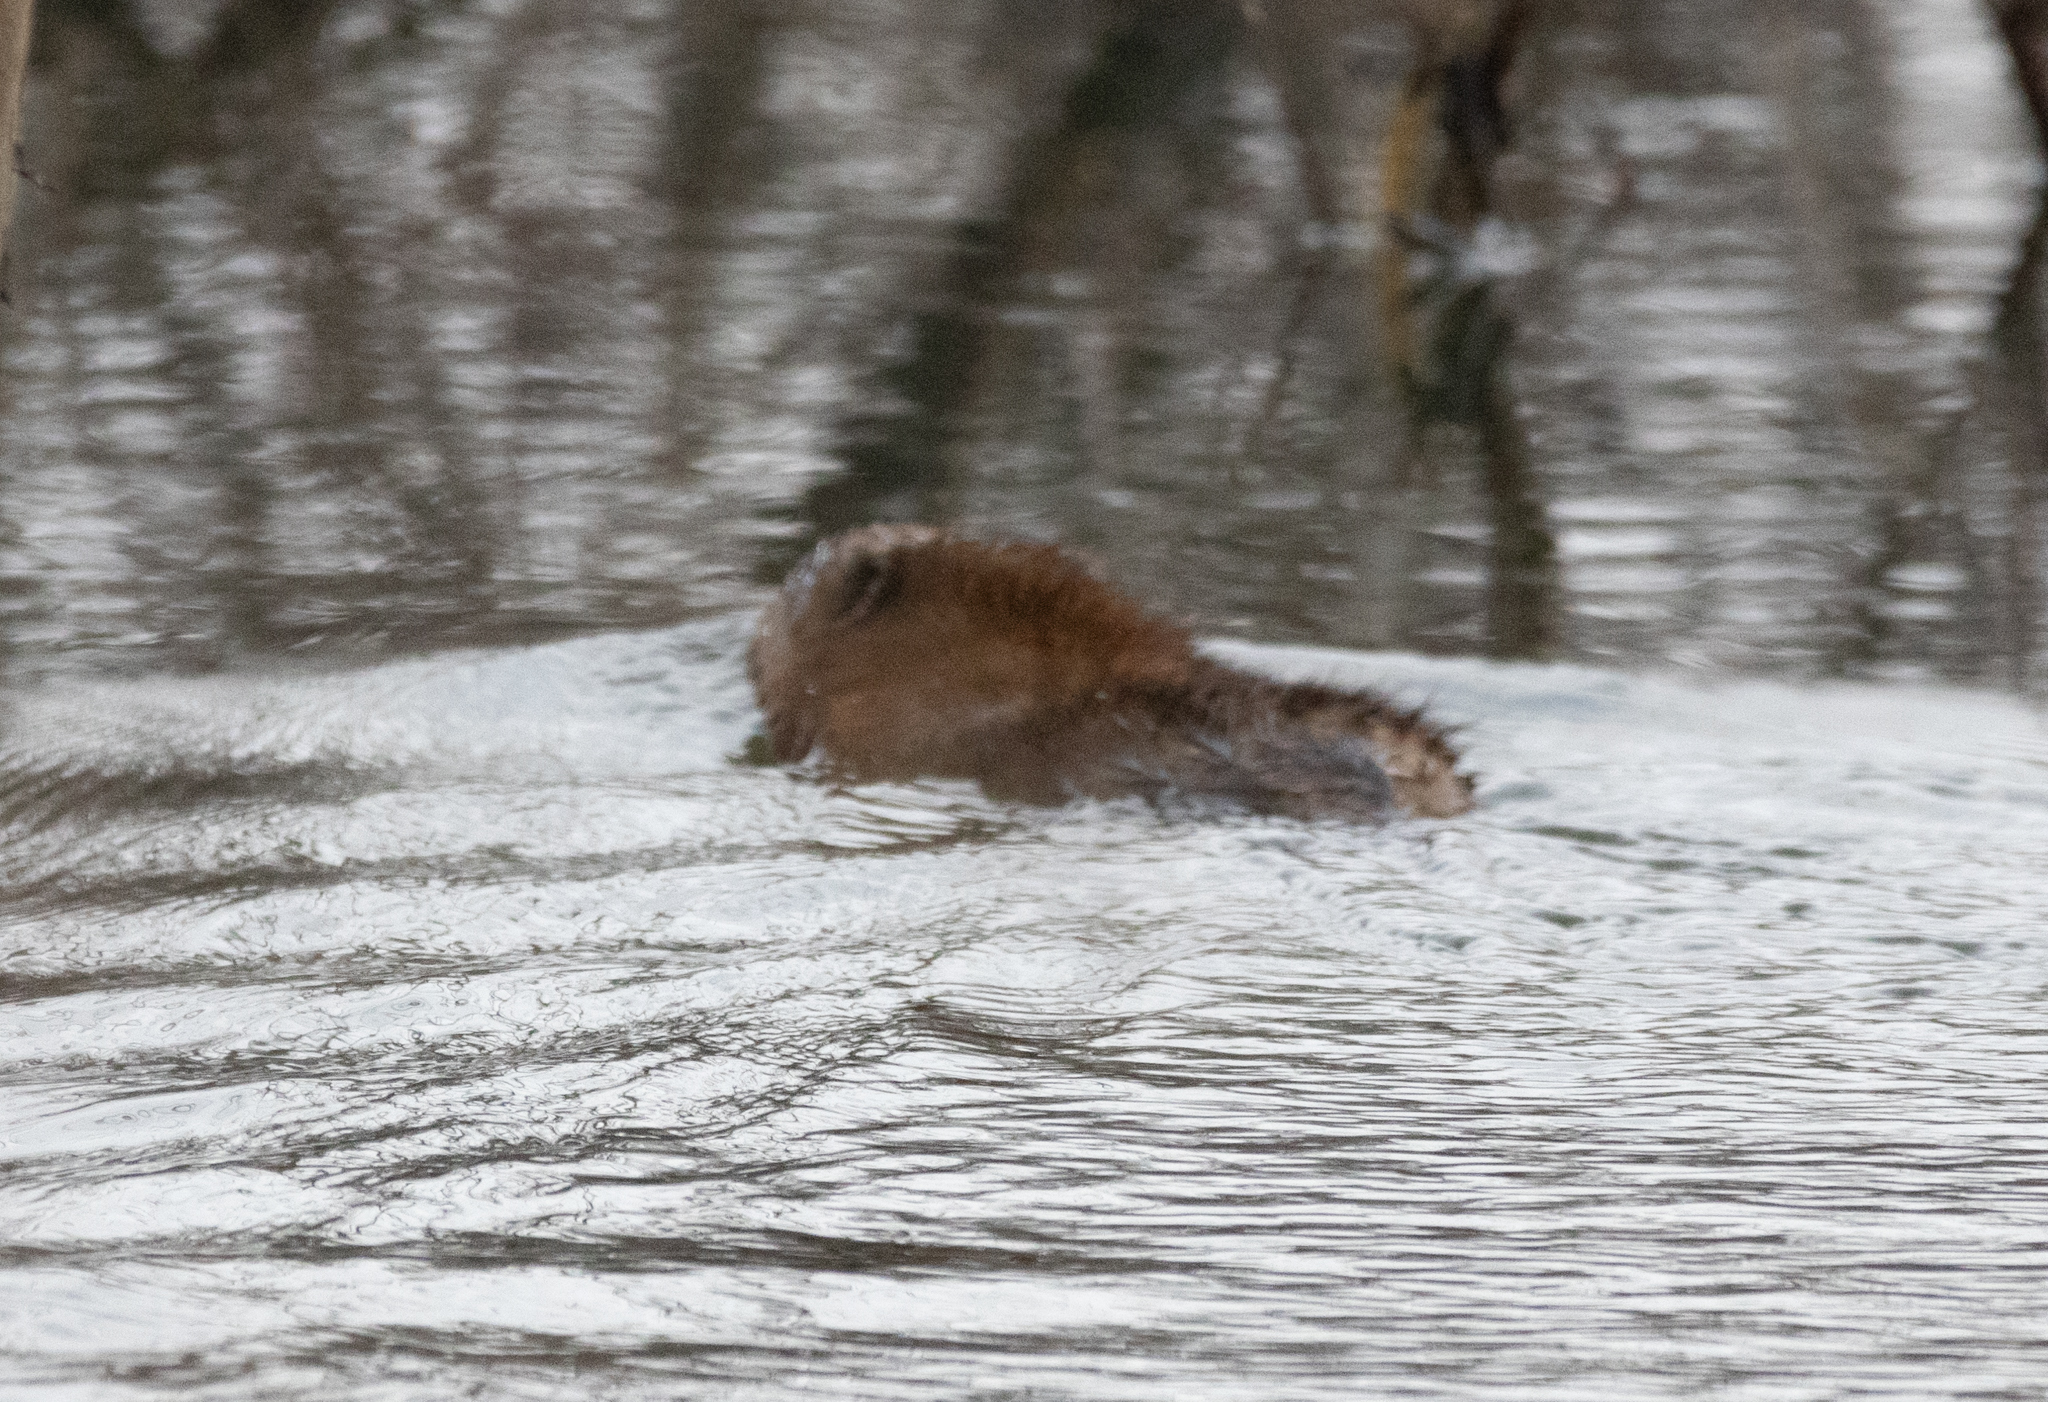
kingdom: Animalia
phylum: Chordata
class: Mammalia
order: Rodentia
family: Cricetidae
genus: Ondatra
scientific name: Ondatra zibethicus
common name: Muskrat
